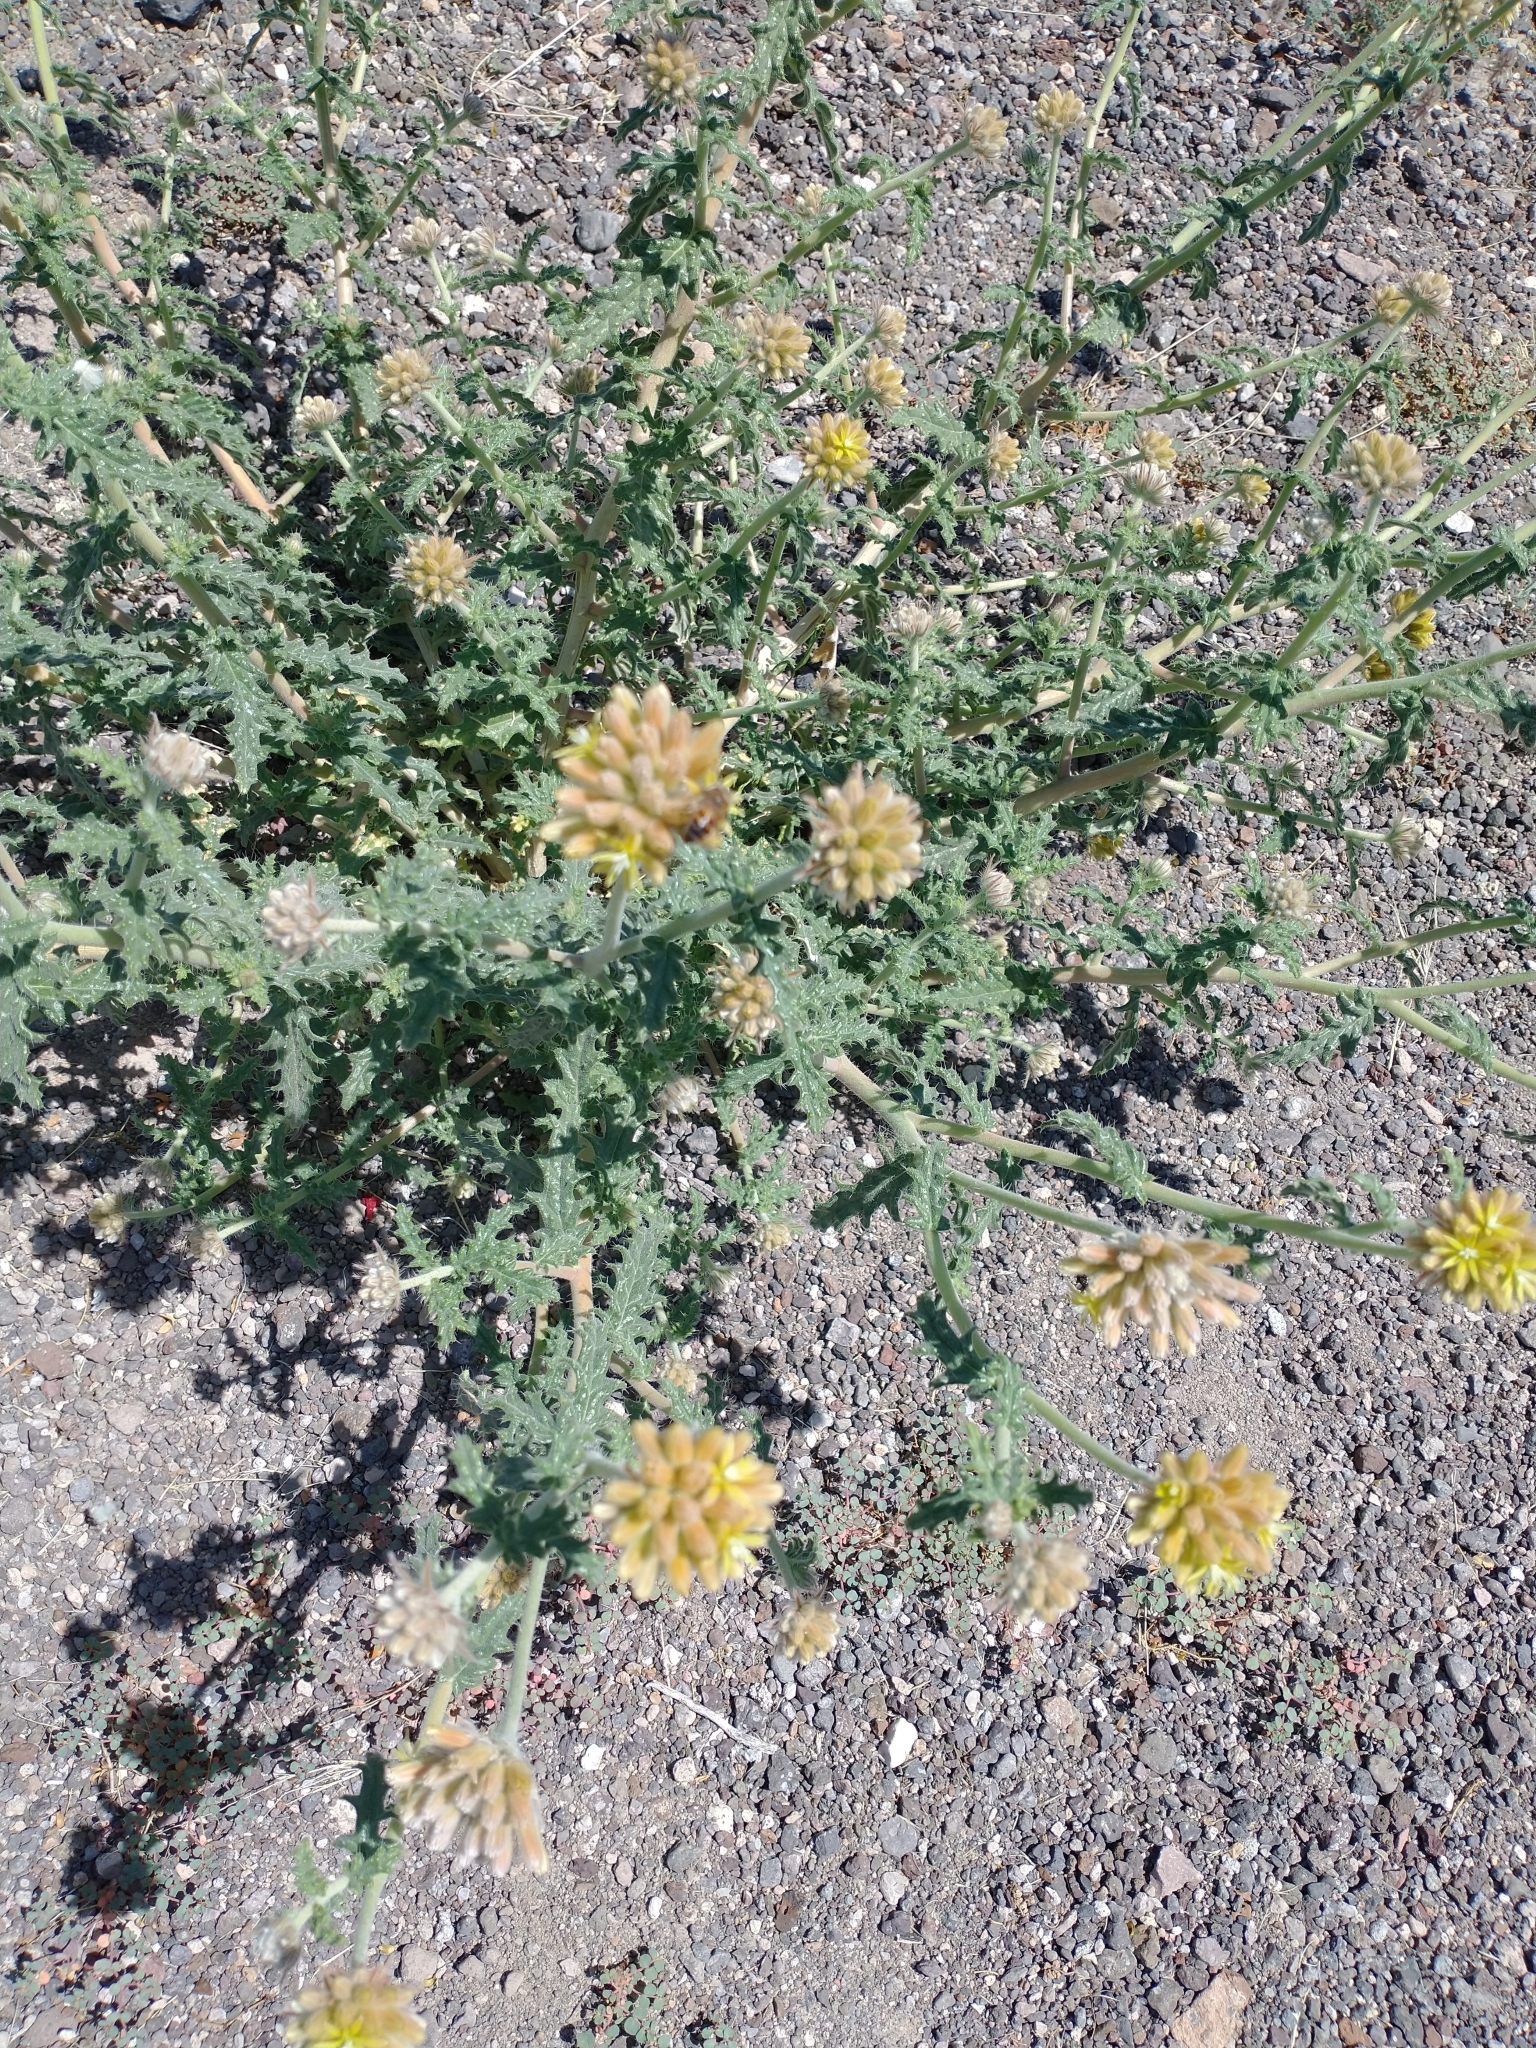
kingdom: Plantae
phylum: Tracheophyta
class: Magnoliopsida
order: Cornales
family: Loasaceae
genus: Cevallia
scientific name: Cevallia sinuata
